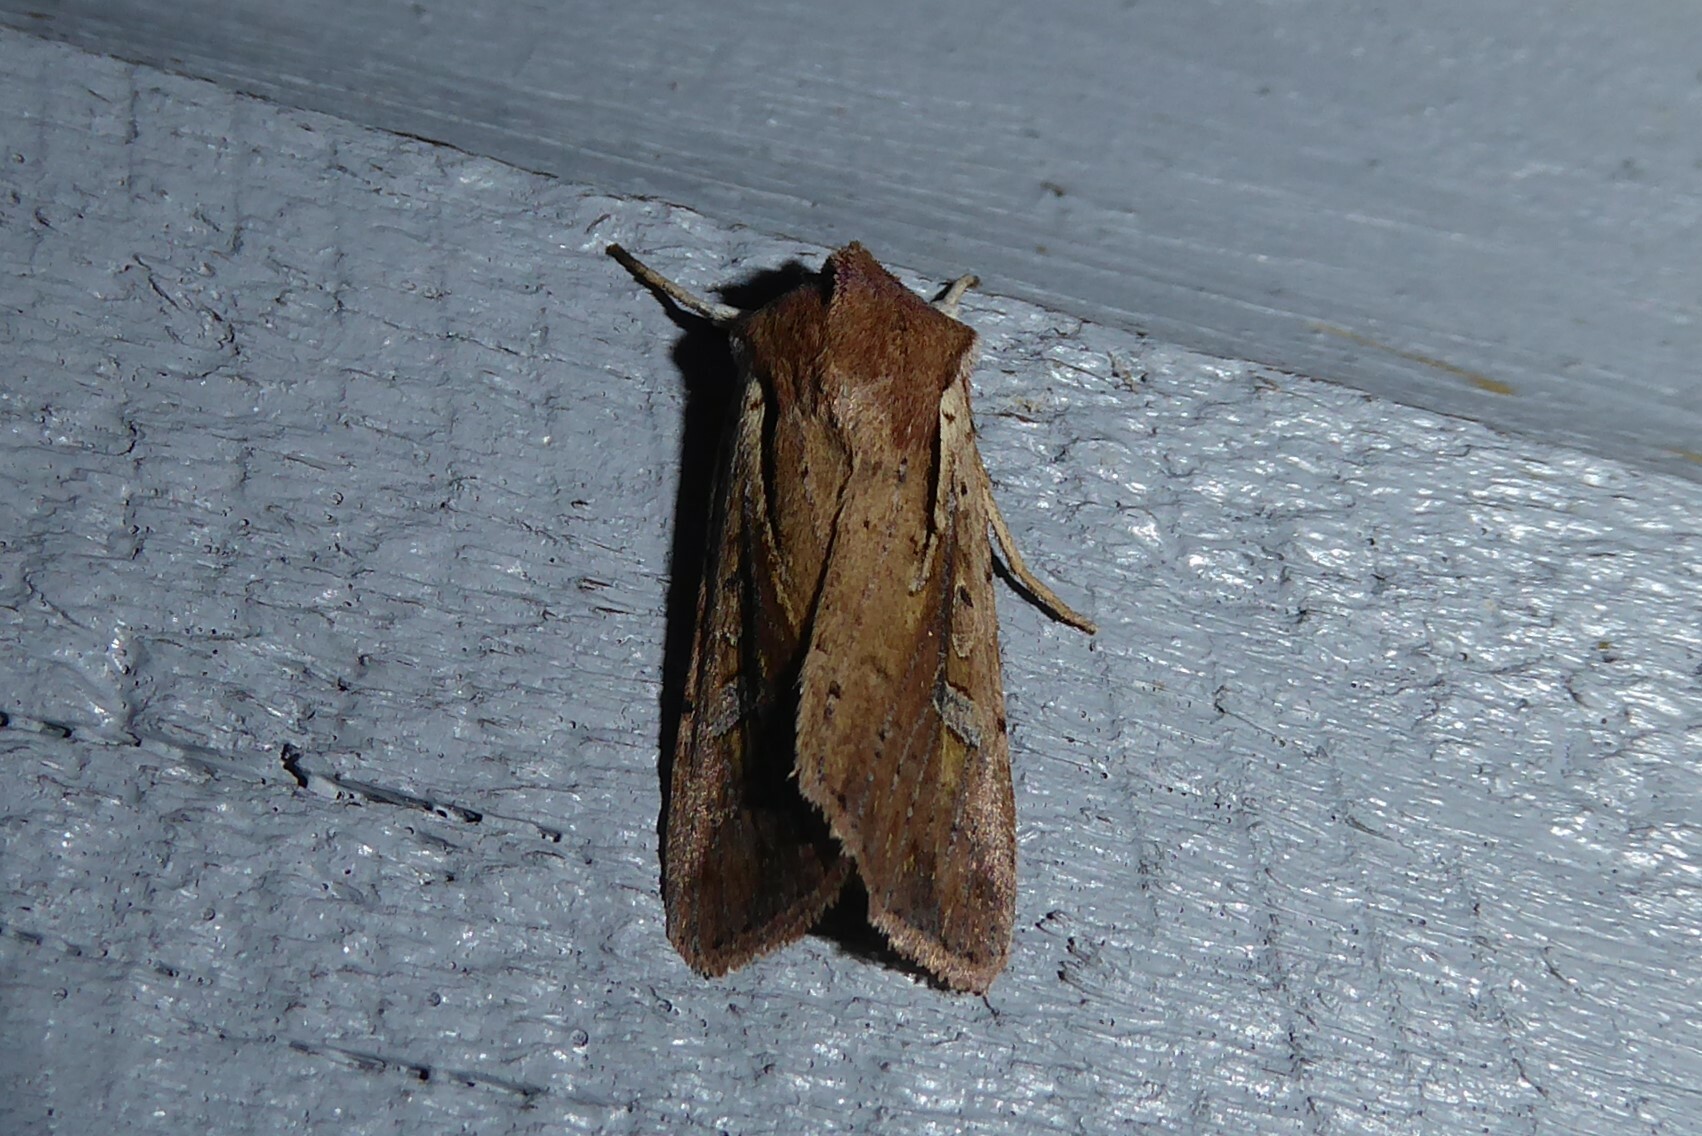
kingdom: Animalia
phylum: Arthropoda
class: Insecta
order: Lepidoptera
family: Noctuidae
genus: Ichneutica
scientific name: Ichneutica atristriga
